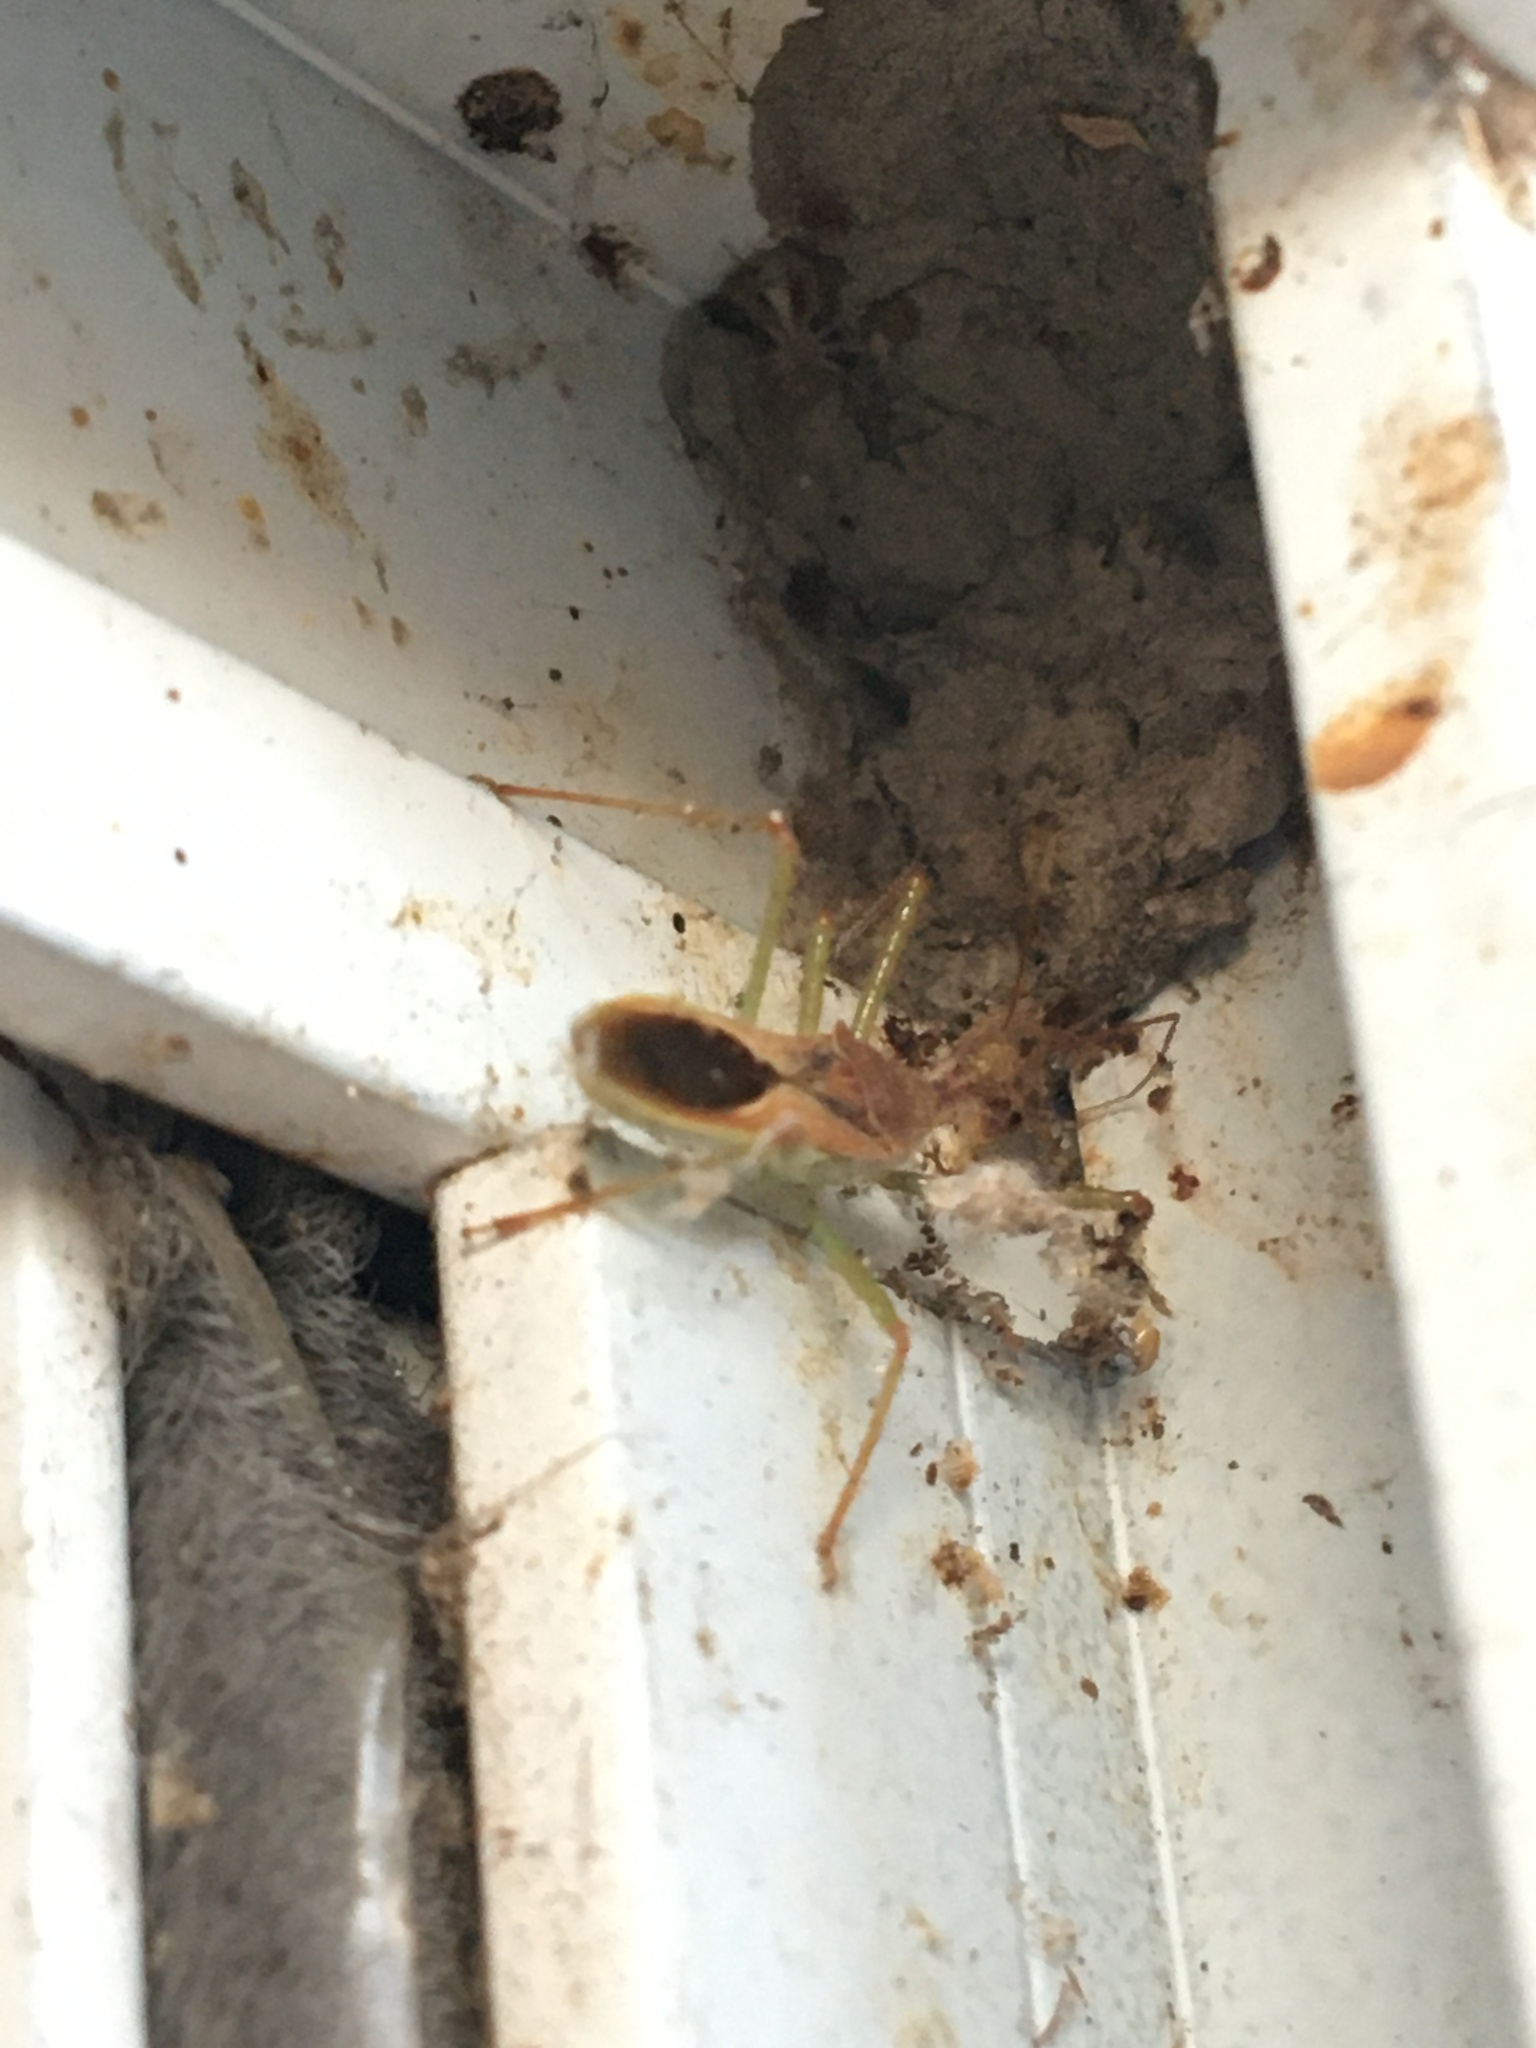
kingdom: Animalia
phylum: Arthropoda
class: Insecta
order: Hemiptera
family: Reduviidae
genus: Zelus
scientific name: Zelus renardii
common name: Assassin bug
